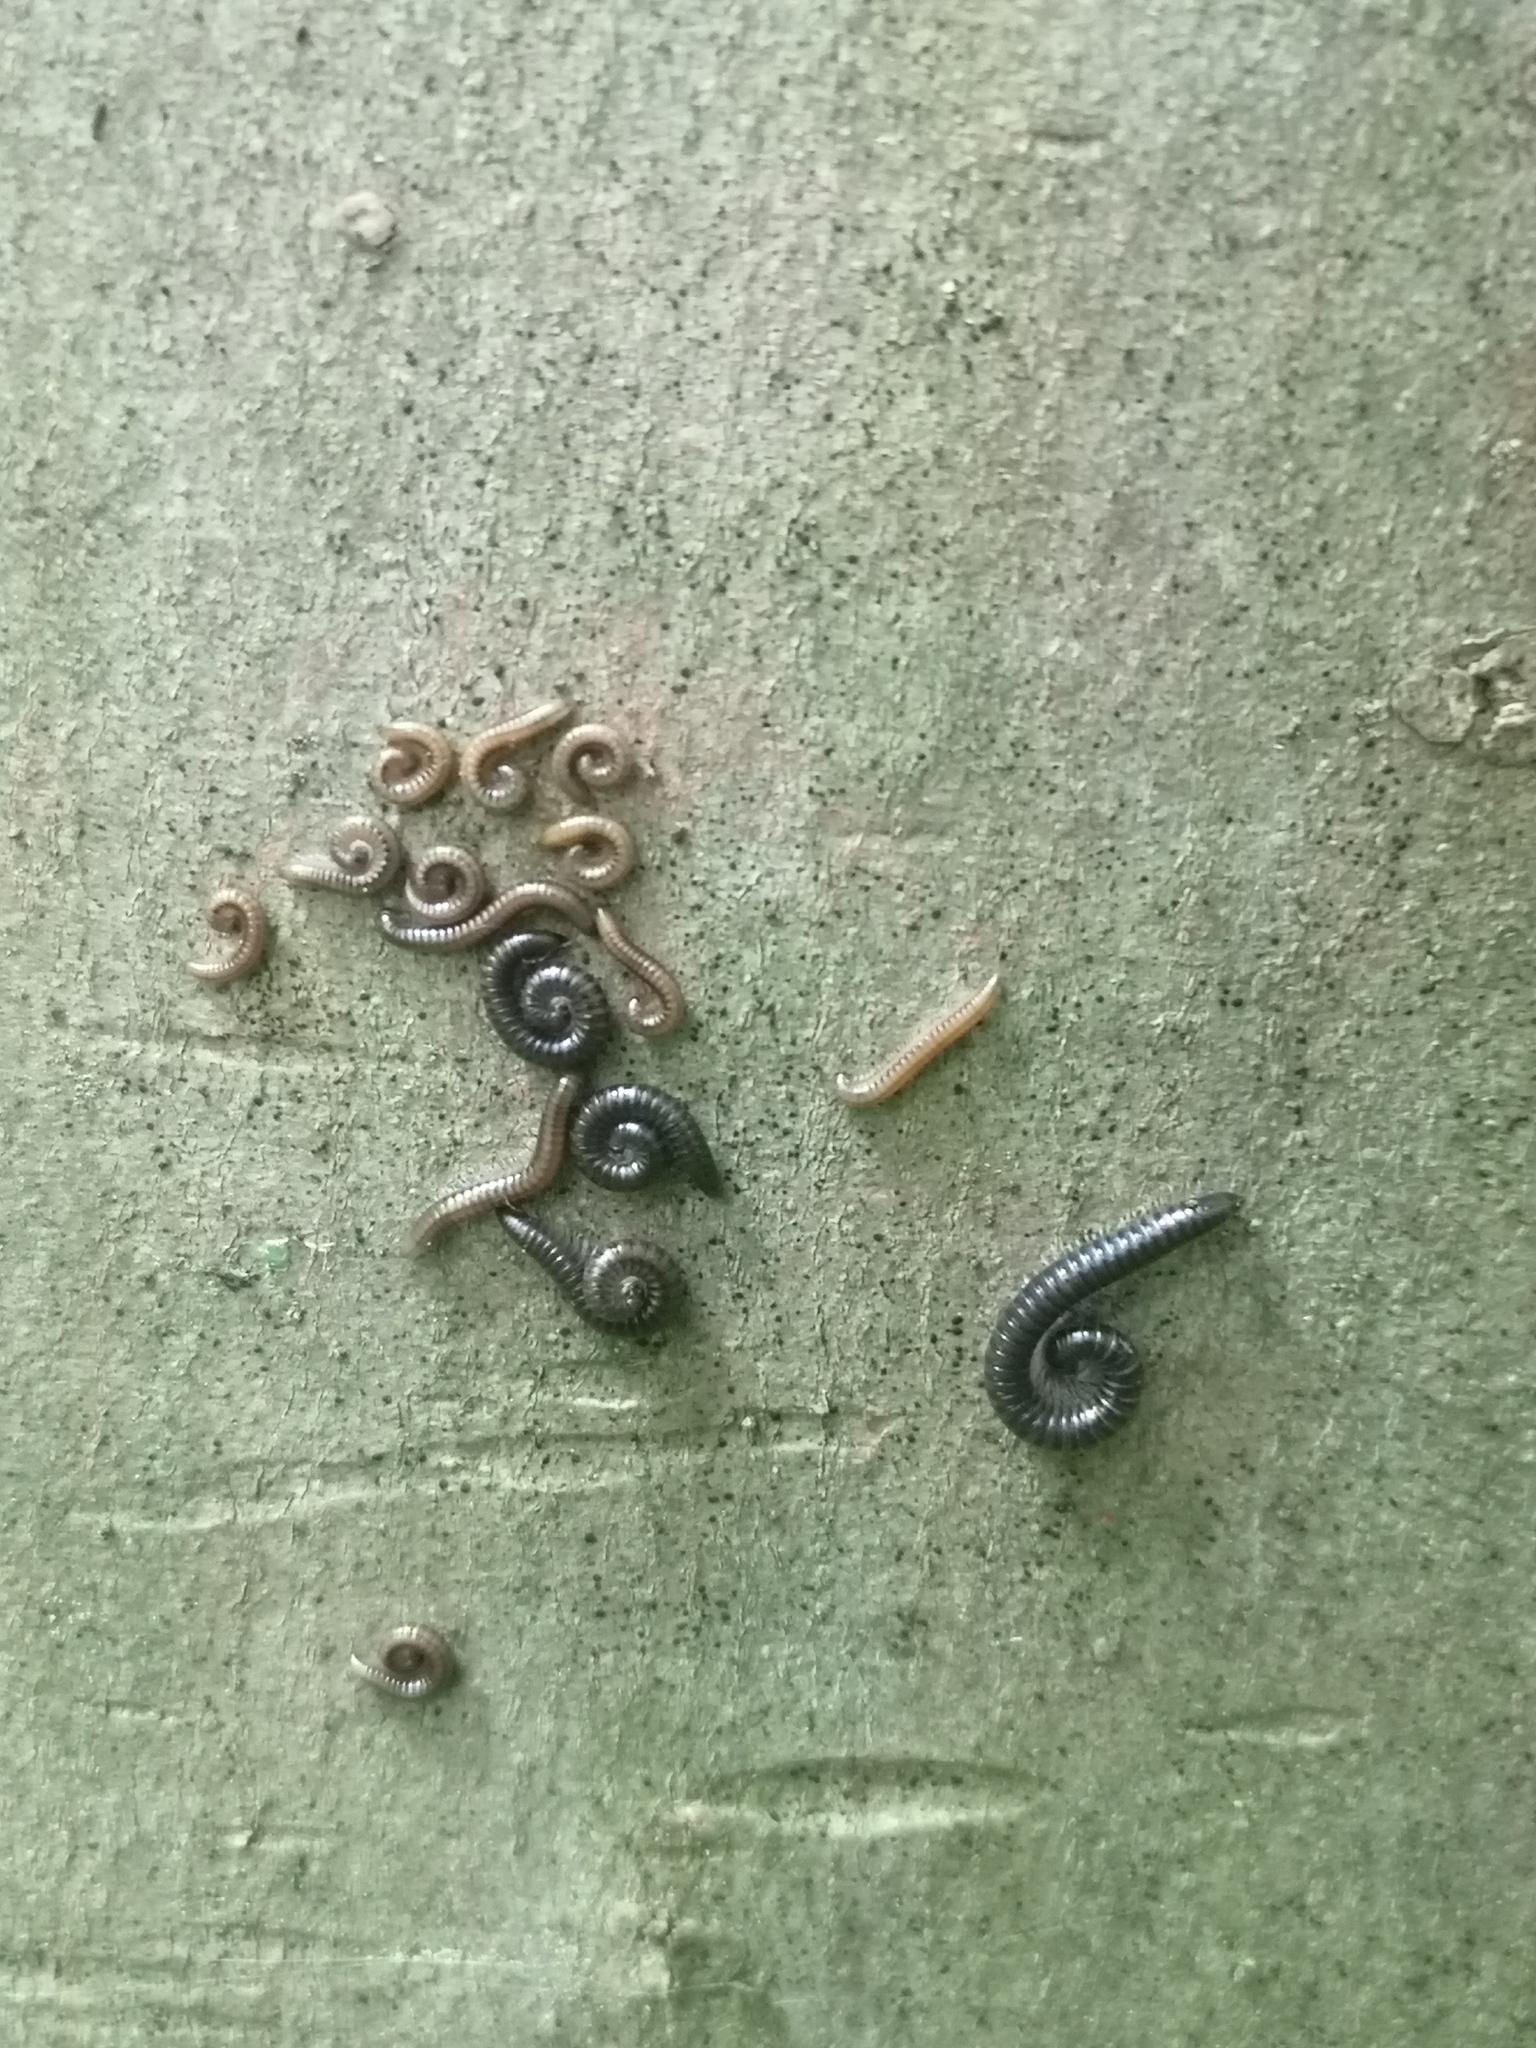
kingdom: Animalia
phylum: Arthropoda
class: Diplopoda
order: Julida
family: Julidae
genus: Tachypodoiulus
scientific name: Tachypodoiulus niger
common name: White-legged snake millipede
